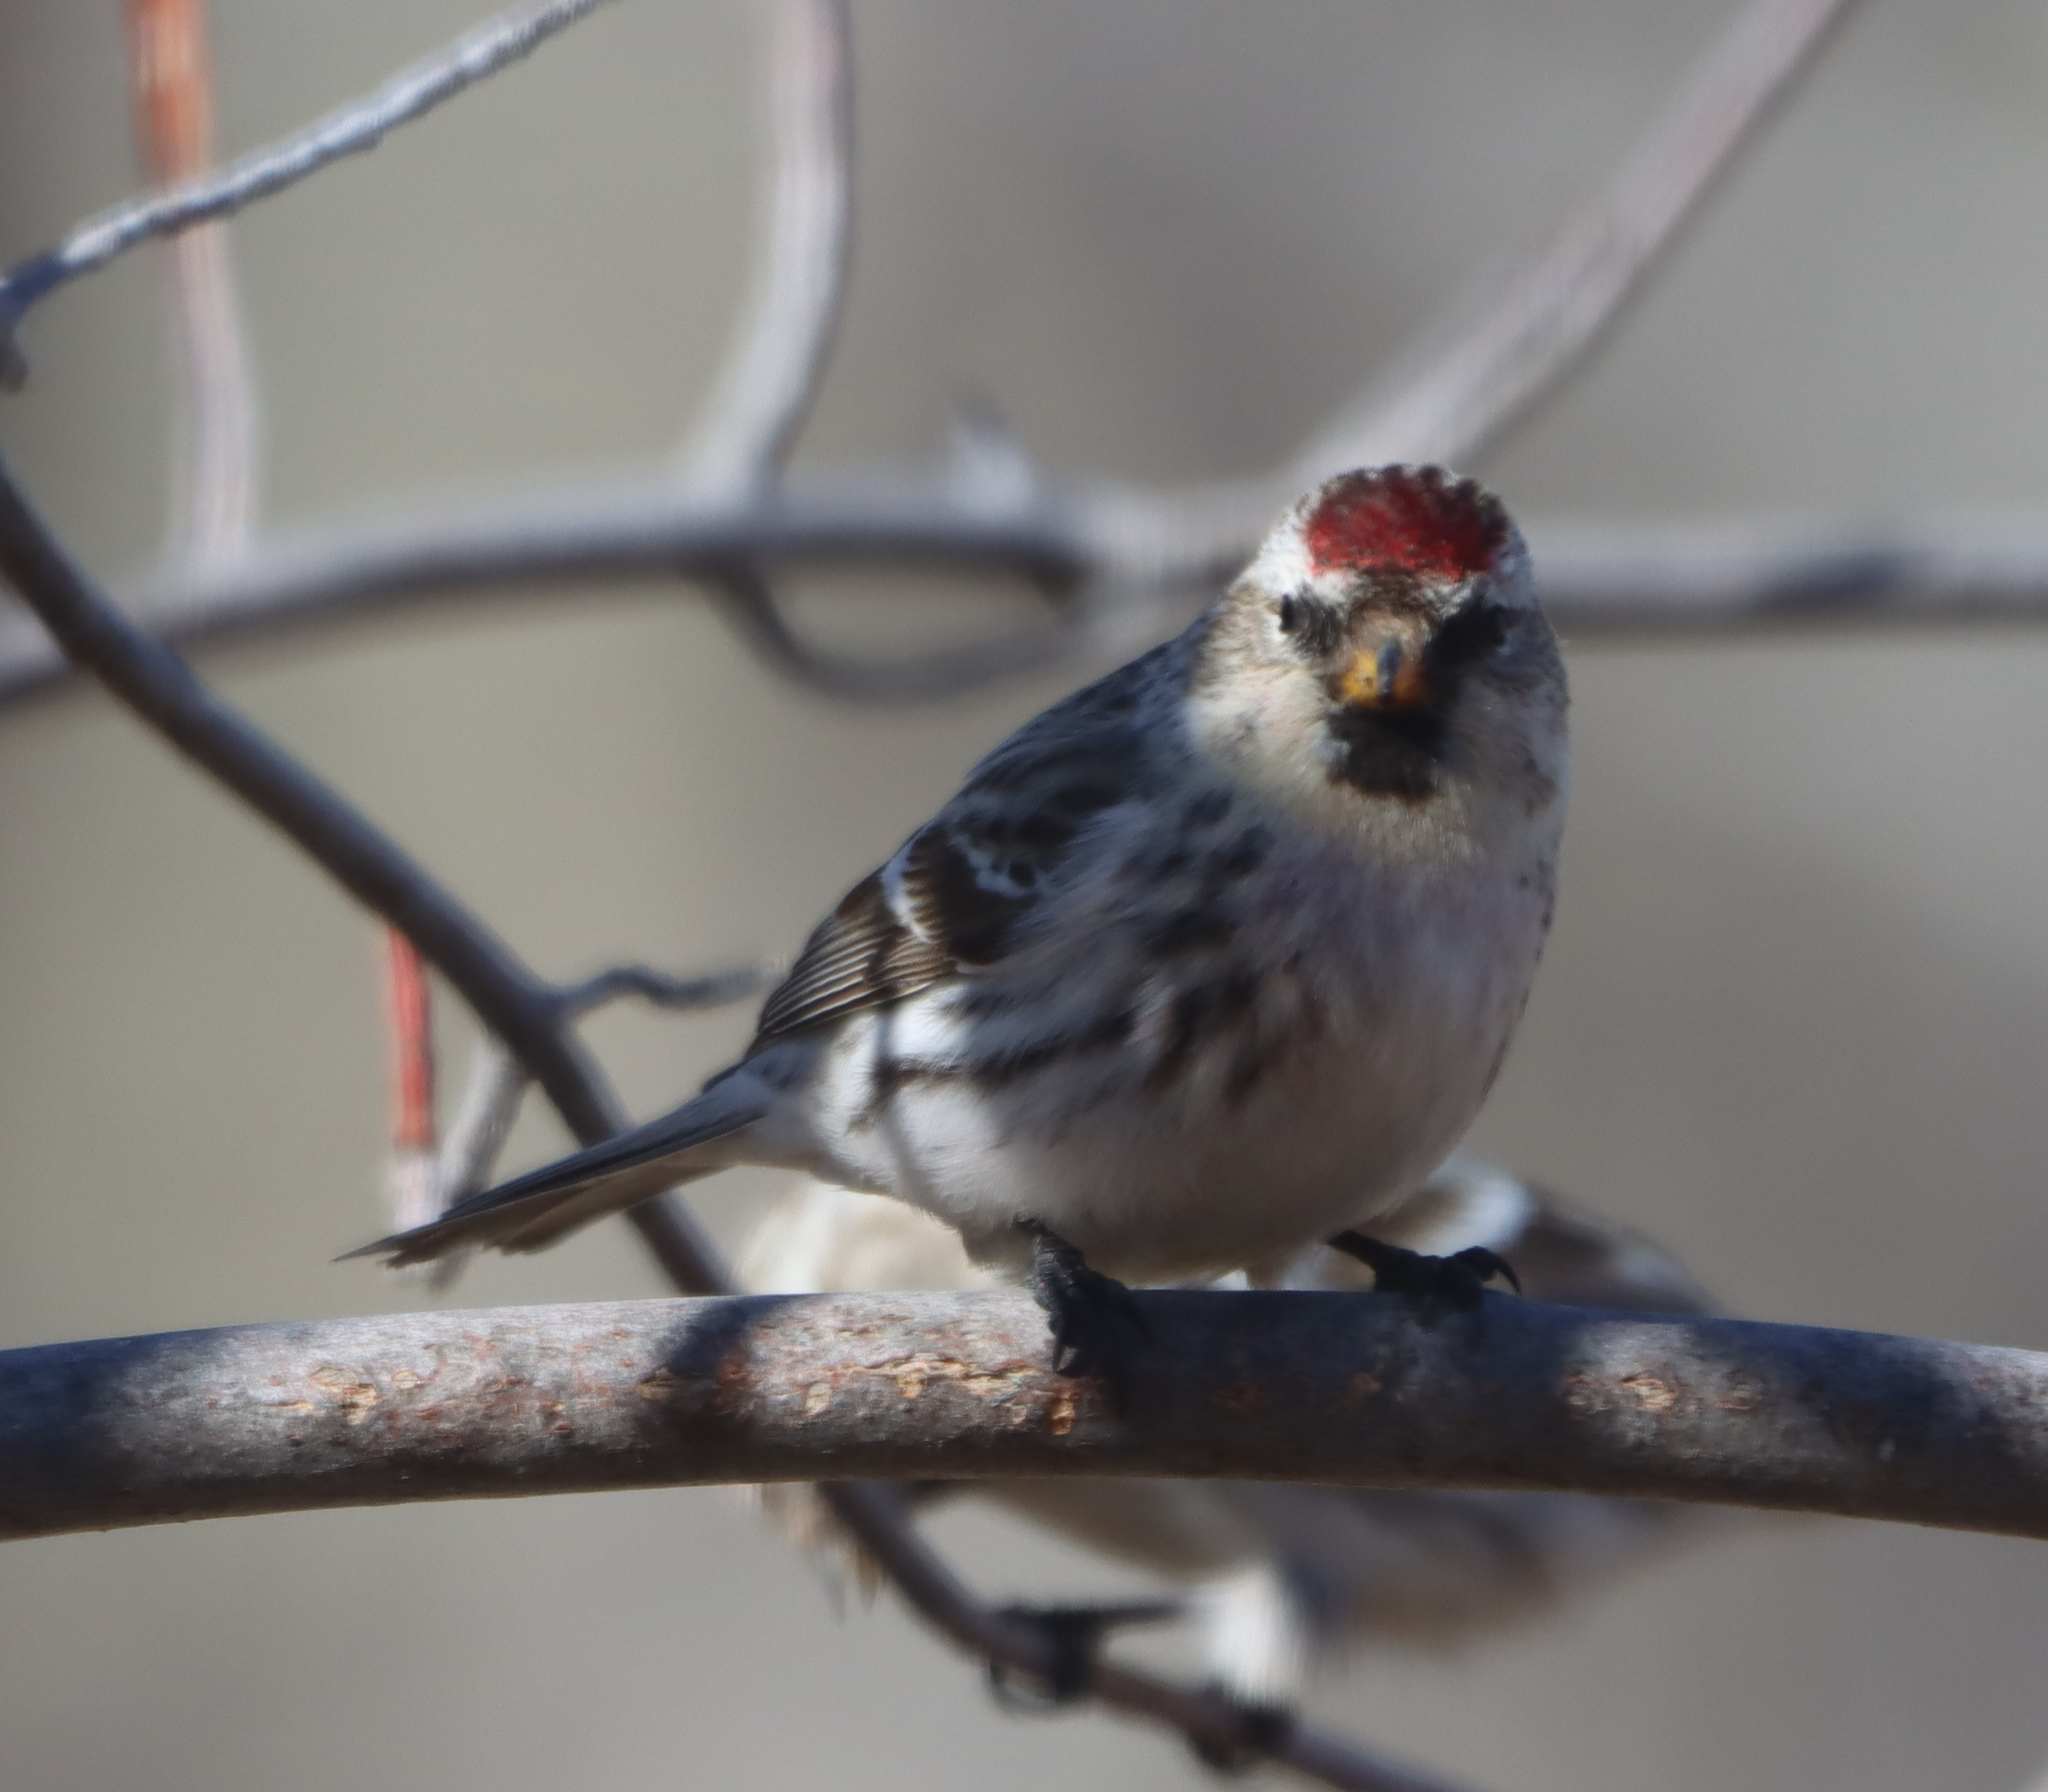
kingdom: Animalia
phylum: Chordata
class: Aves
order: Passeriformes
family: Fringillidae
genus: Acanthis
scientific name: Acanthis flammea
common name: Common redpoll
